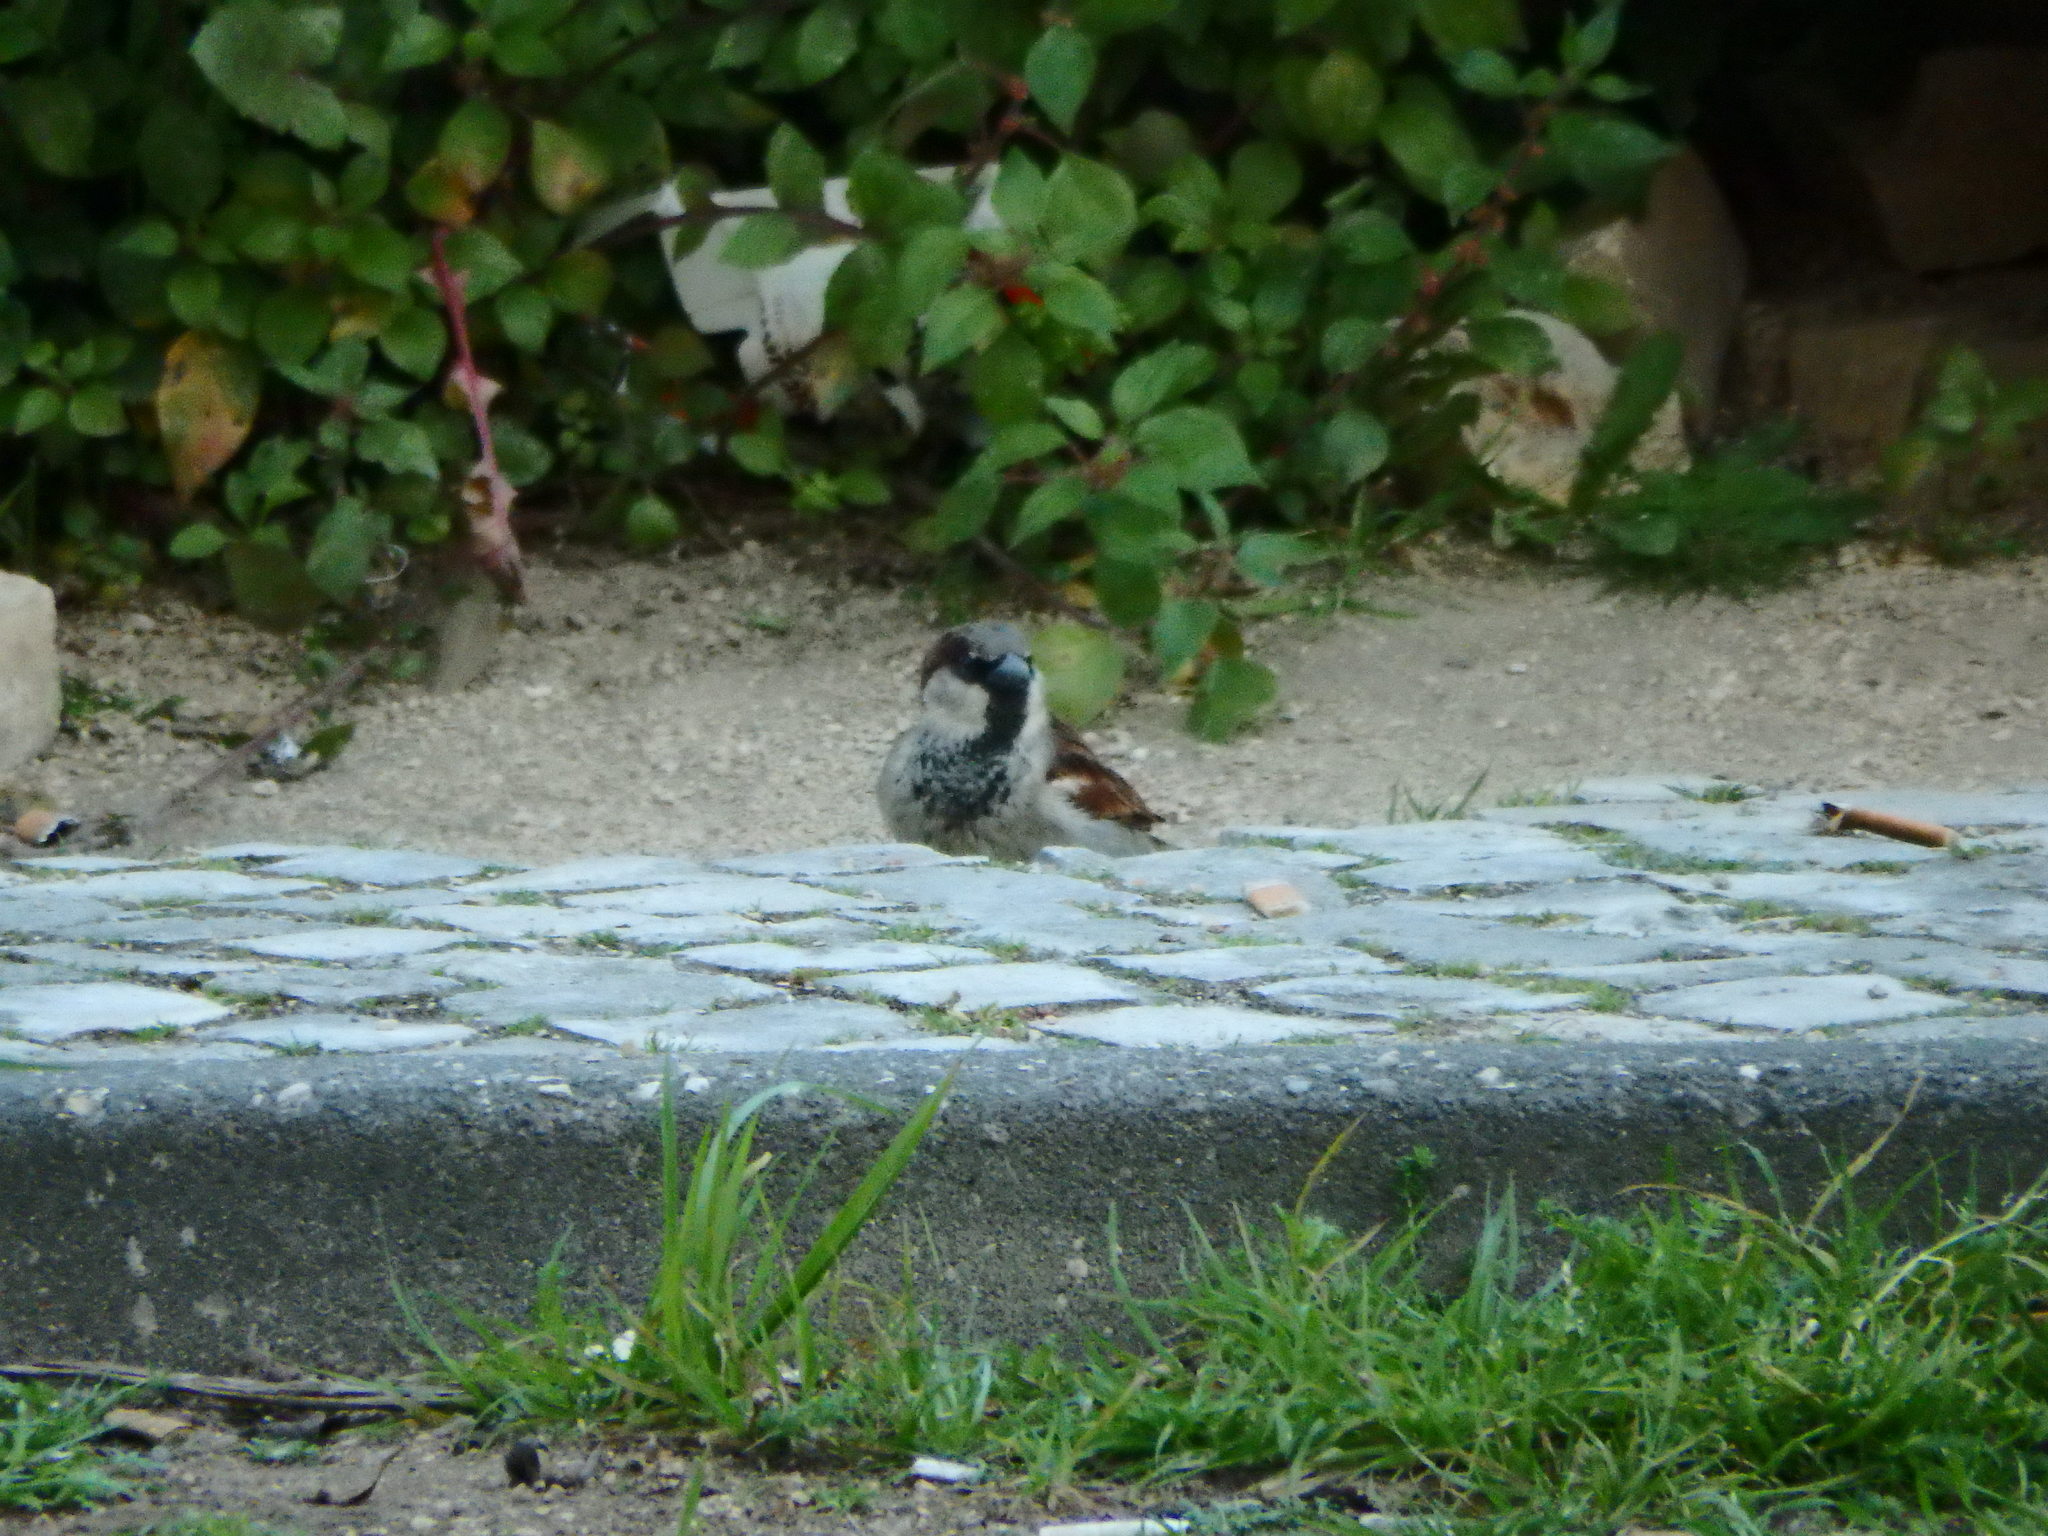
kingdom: Animalia
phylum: Chordata
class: Aves
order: Passeriformes
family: Passeridae
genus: Passer
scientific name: Passer domesticus
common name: House sparrow
